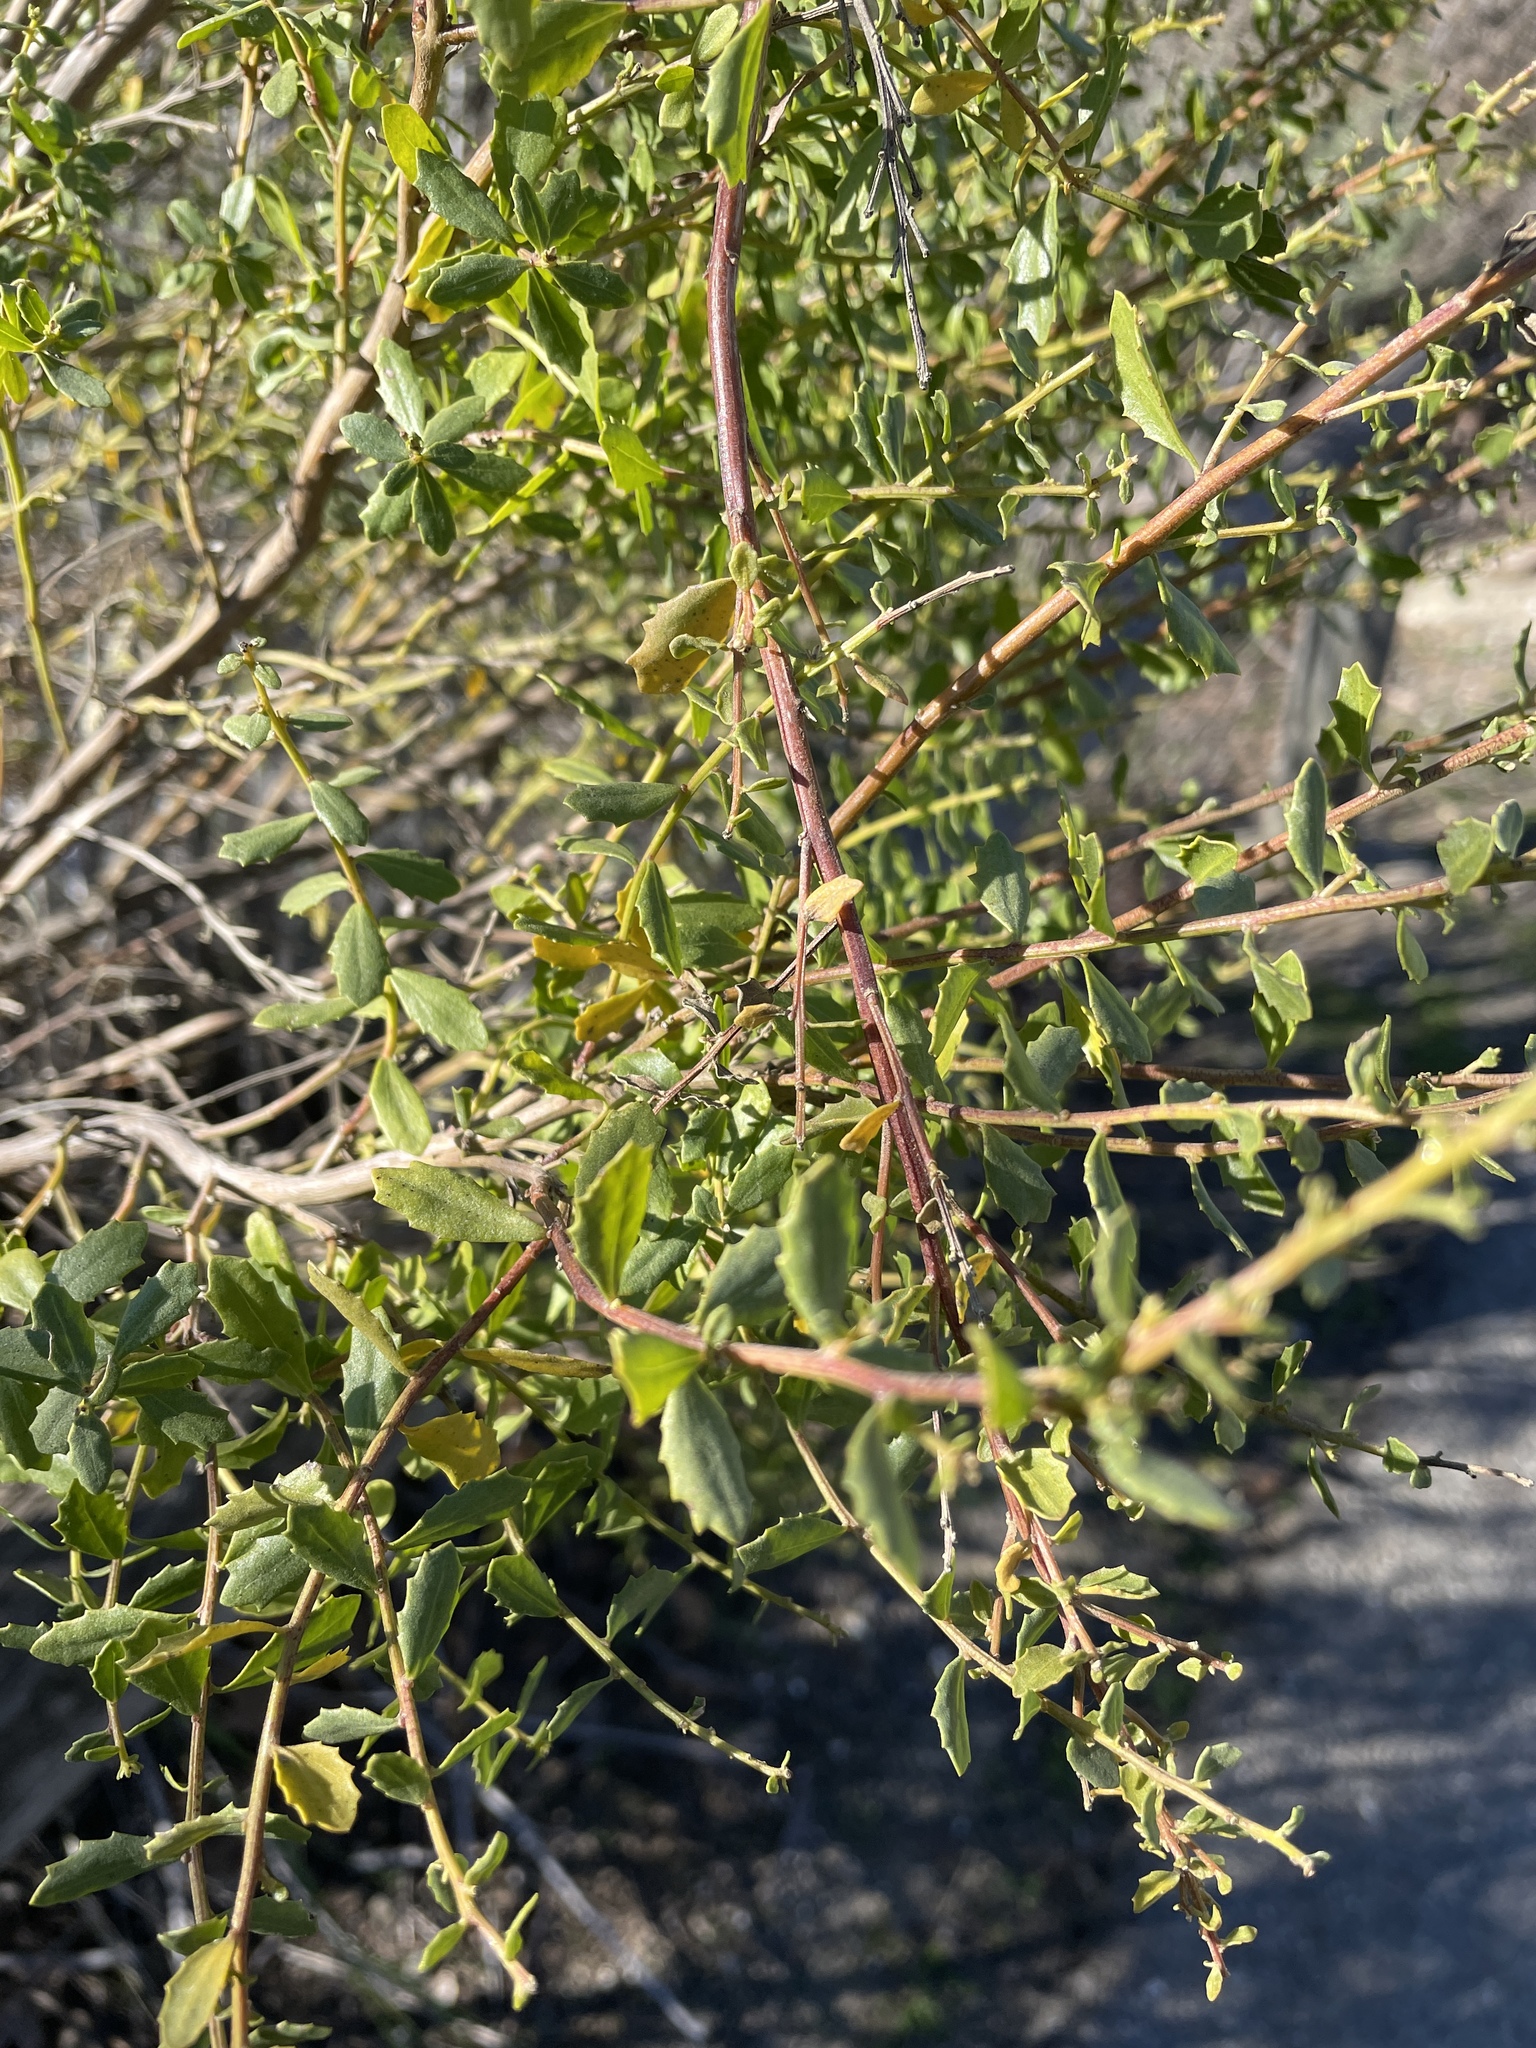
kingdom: Plantae
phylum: Tracheophyta
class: Magnoliopsida
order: Asterales
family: Asteraceae
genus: Baccharis
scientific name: Baccharis pilularis
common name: Coyotebrush
